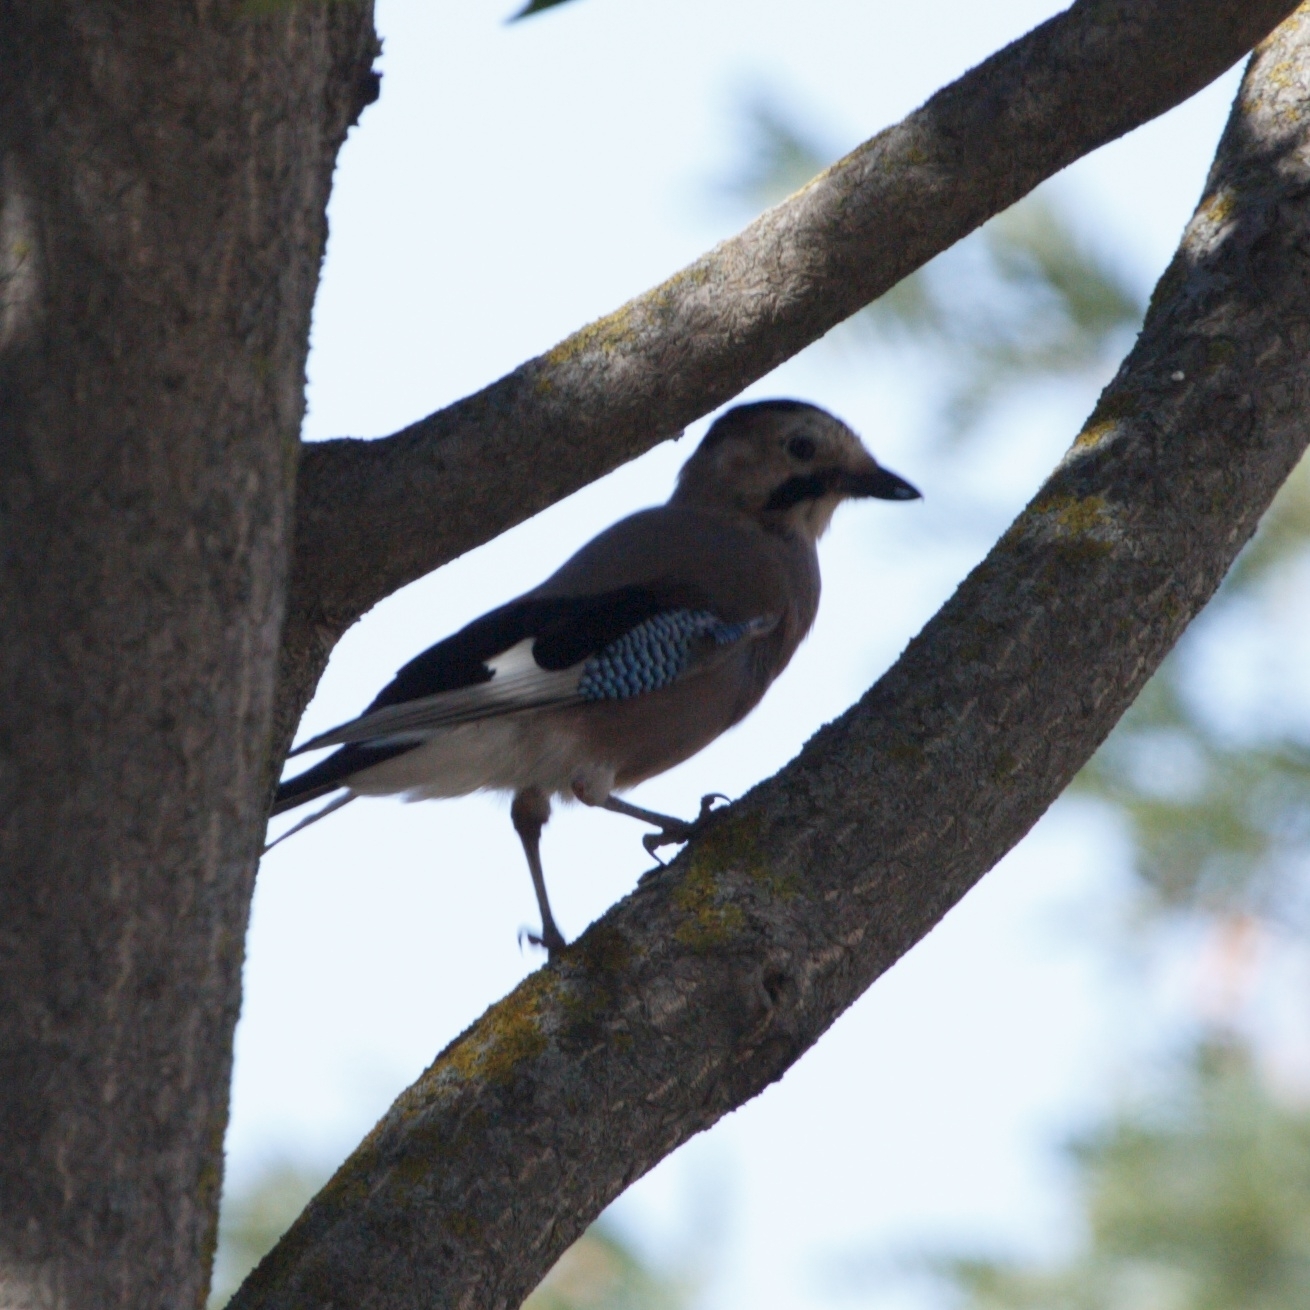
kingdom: Animalia
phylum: Chordata
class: Aves
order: Passeriformes
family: Corvidae
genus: Garrulus
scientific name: Garrulus glandarius
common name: Eurasian jay
